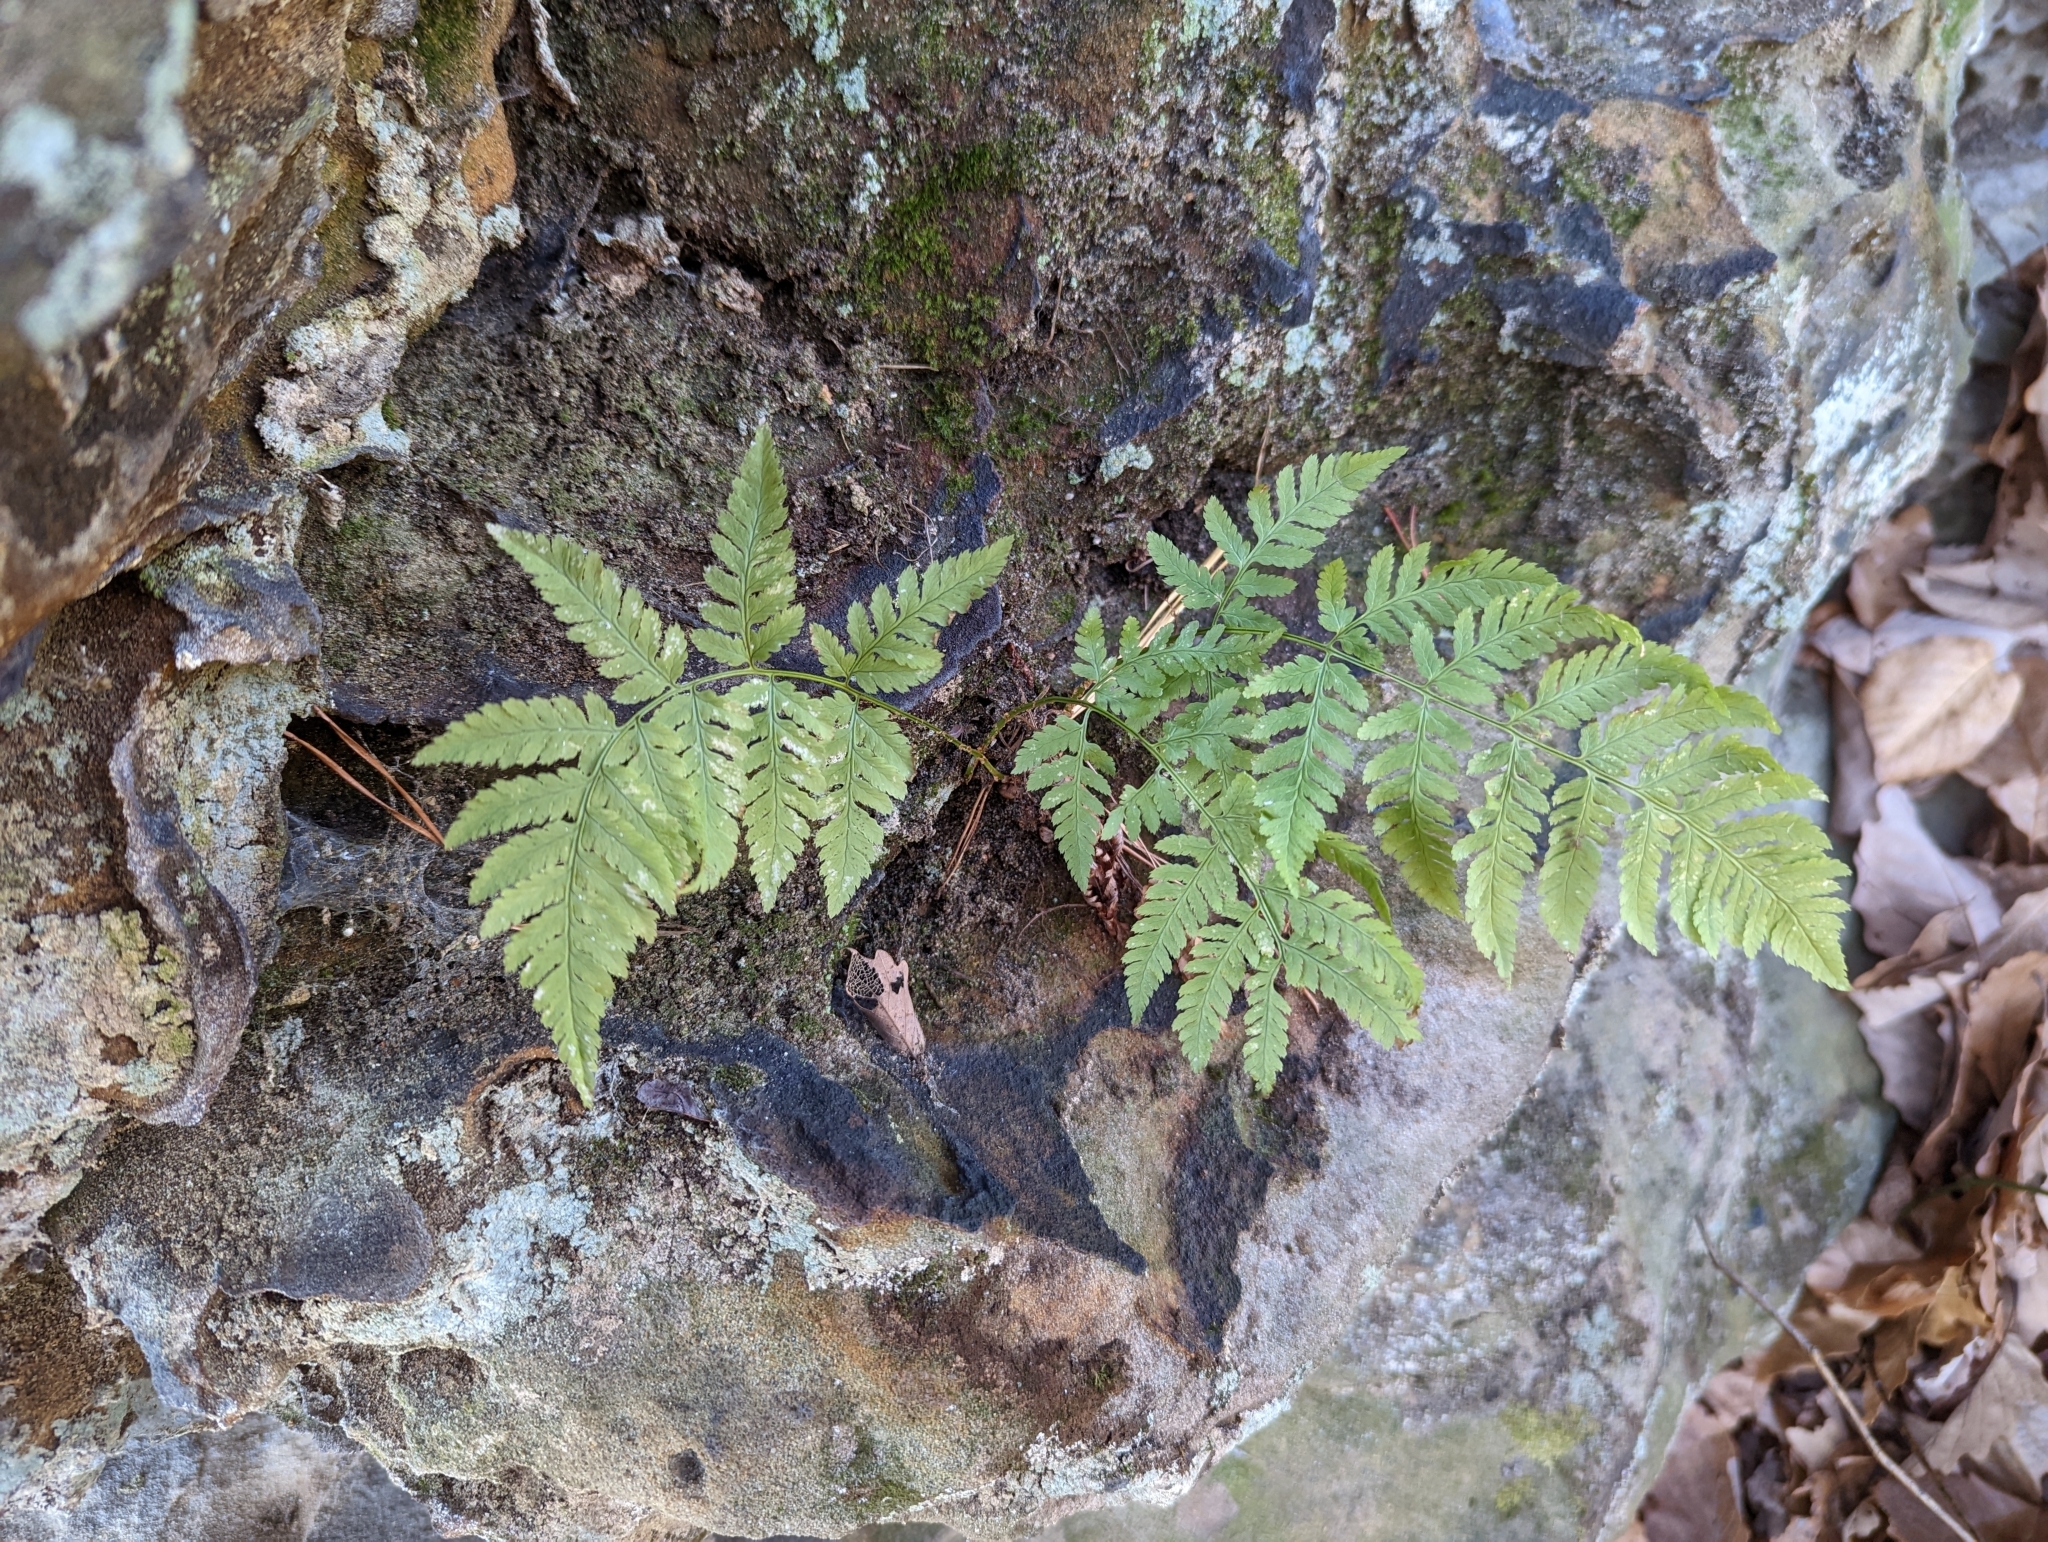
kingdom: Plantae
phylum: Tracheophyta
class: Polypodiopsida
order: Polypodiales
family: Dryopteridaceae
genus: Dryopteris
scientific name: Dryopteris carthusiana
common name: Narrow buckler-fern
